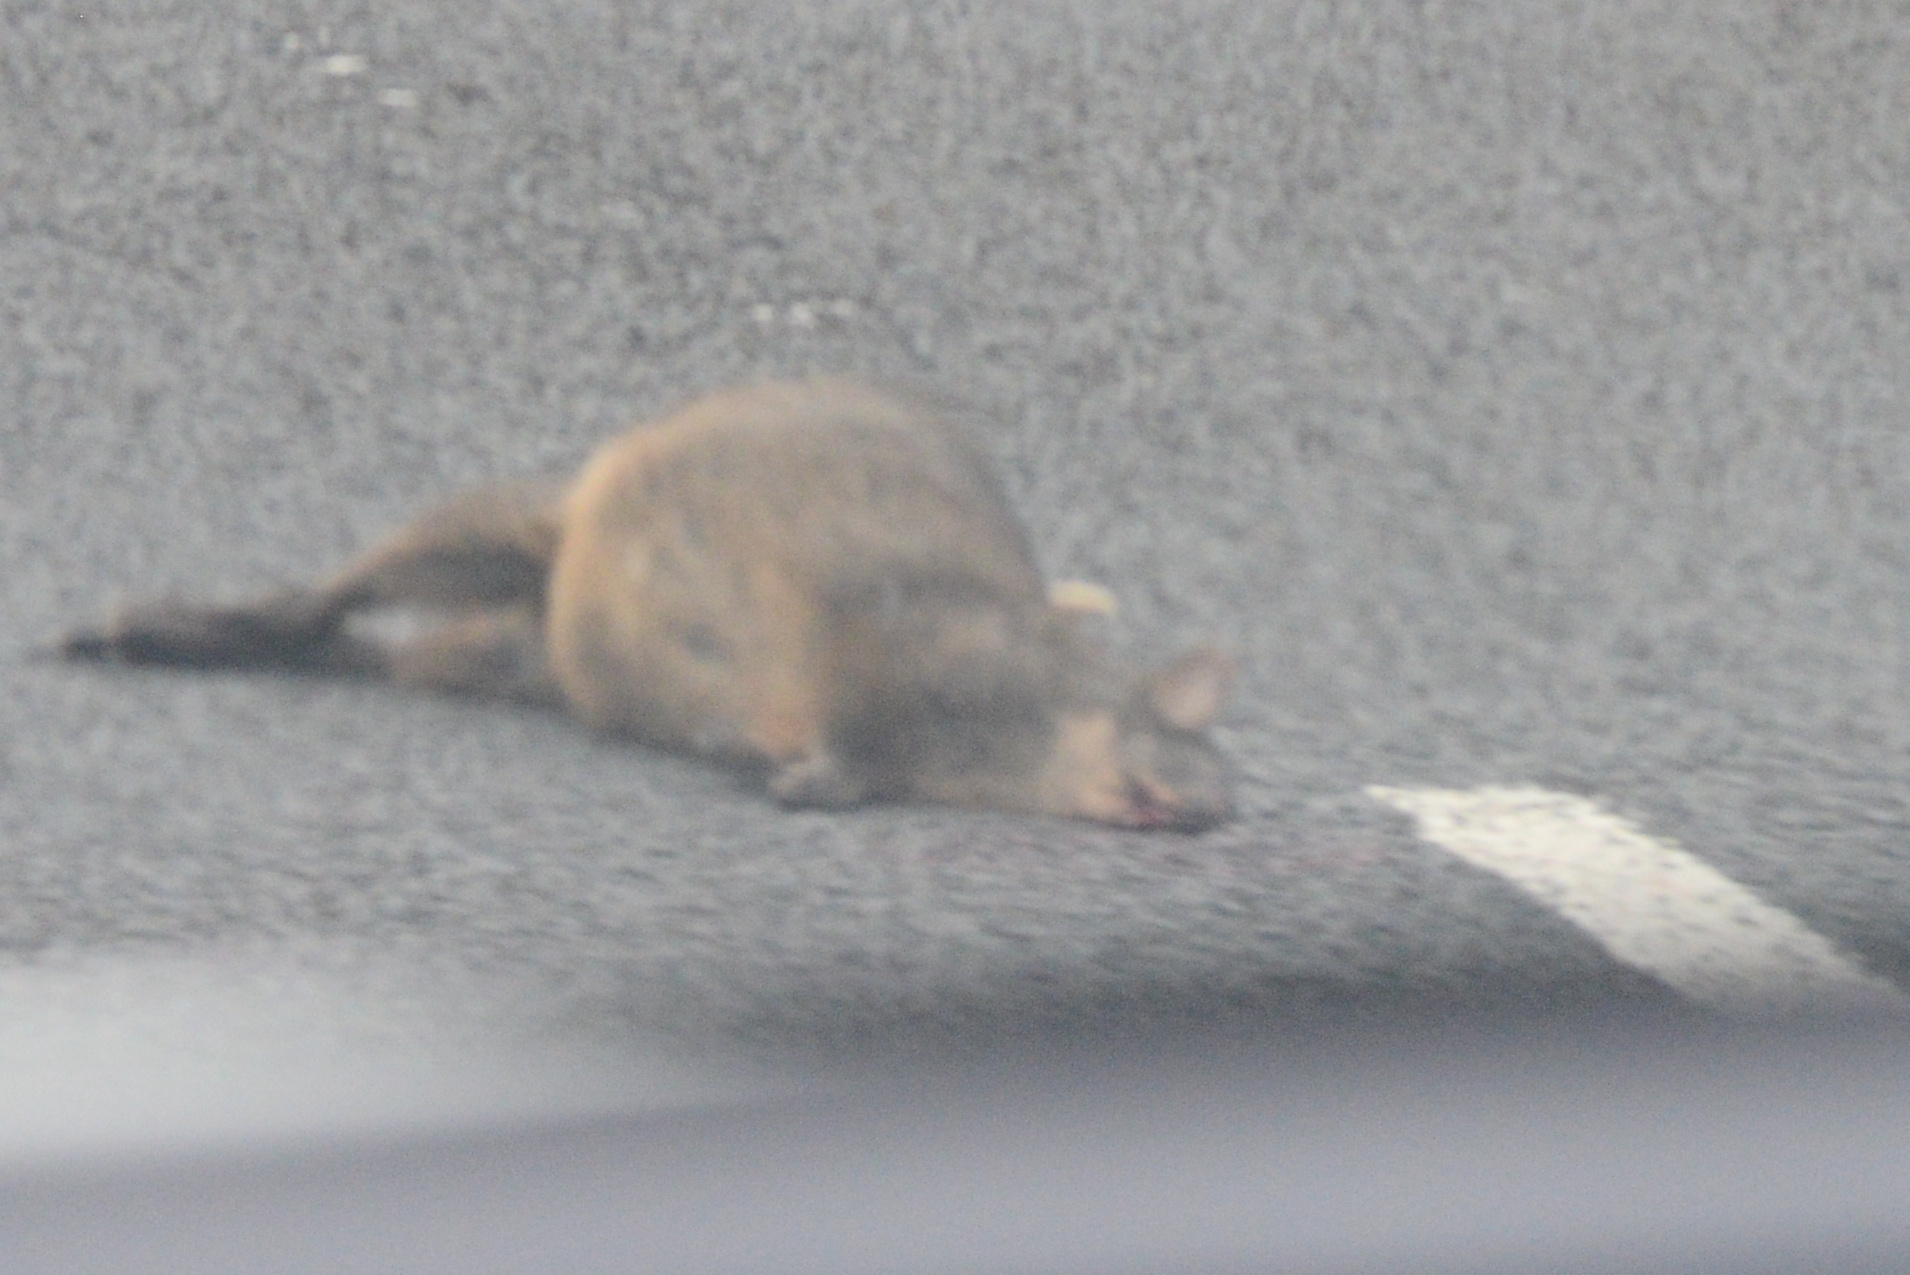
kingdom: Animalia
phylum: Chordata
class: Mammalia
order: Diprotodontia
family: Macropodidae
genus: Thylogale
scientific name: Thylogale billardierii
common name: Tasmanian pademelon
